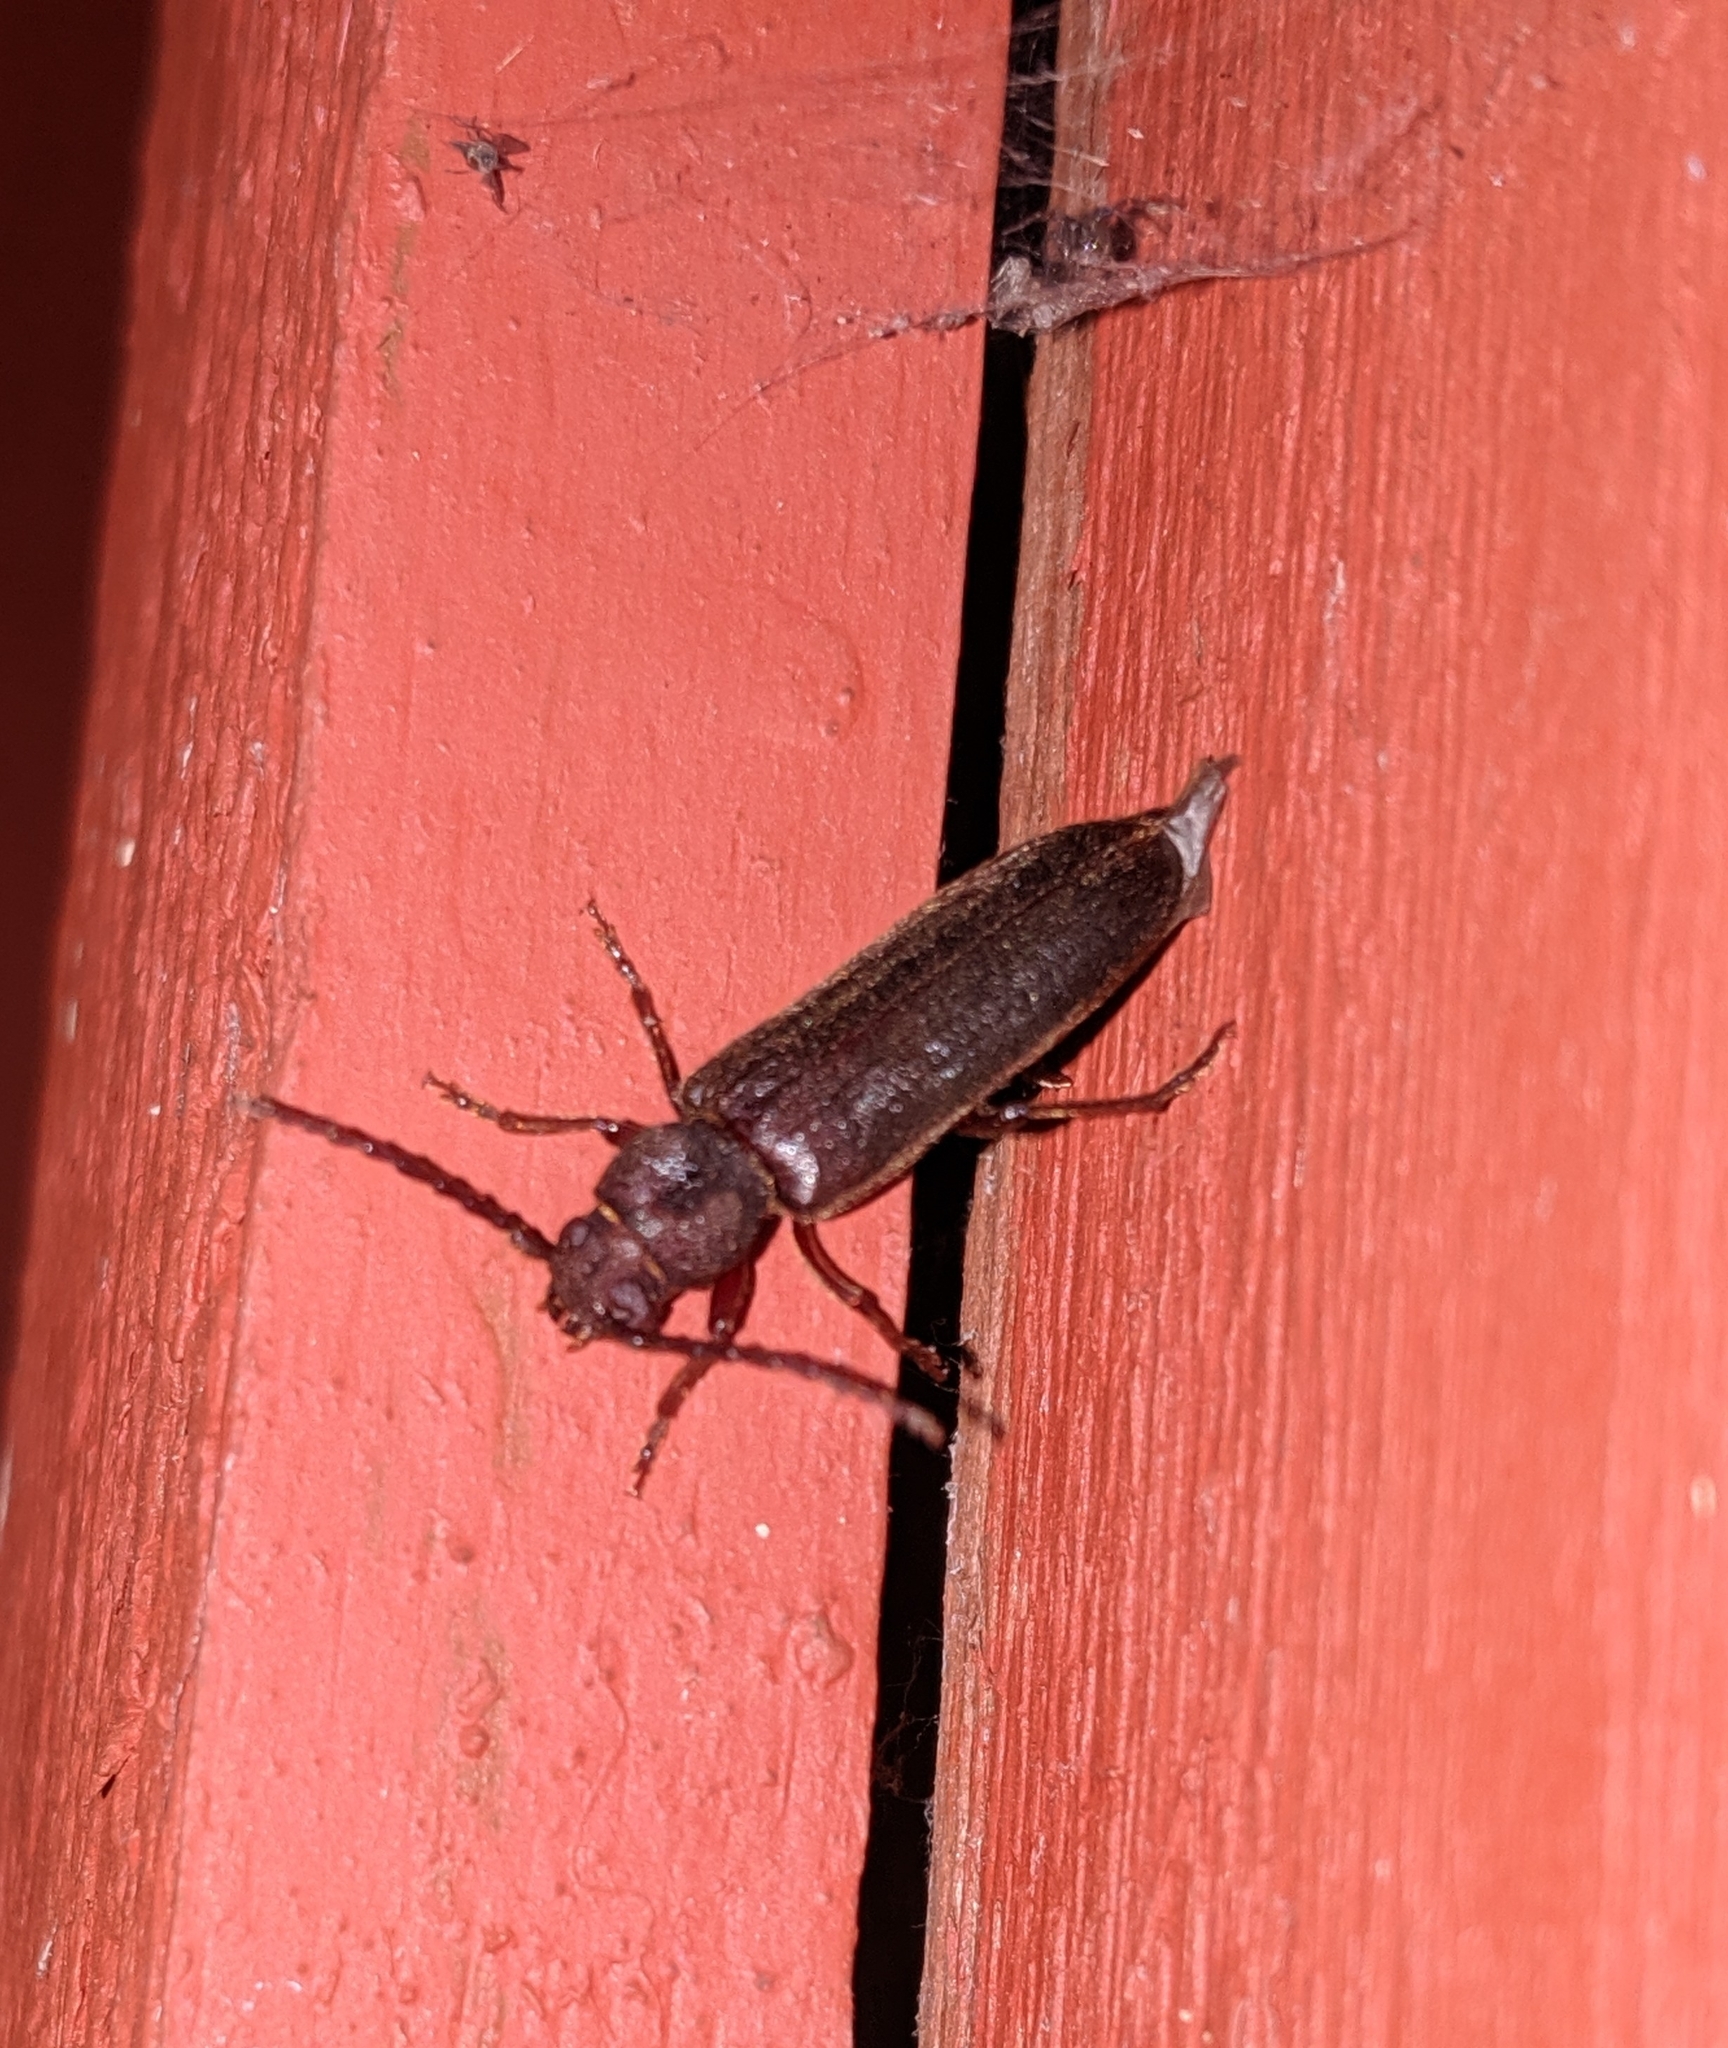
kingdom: Animalia
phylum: Arthropoda
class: Insecta
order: Coleoptera
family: Cerambycidae
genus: Megasemum
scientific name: Megasemum asperum
